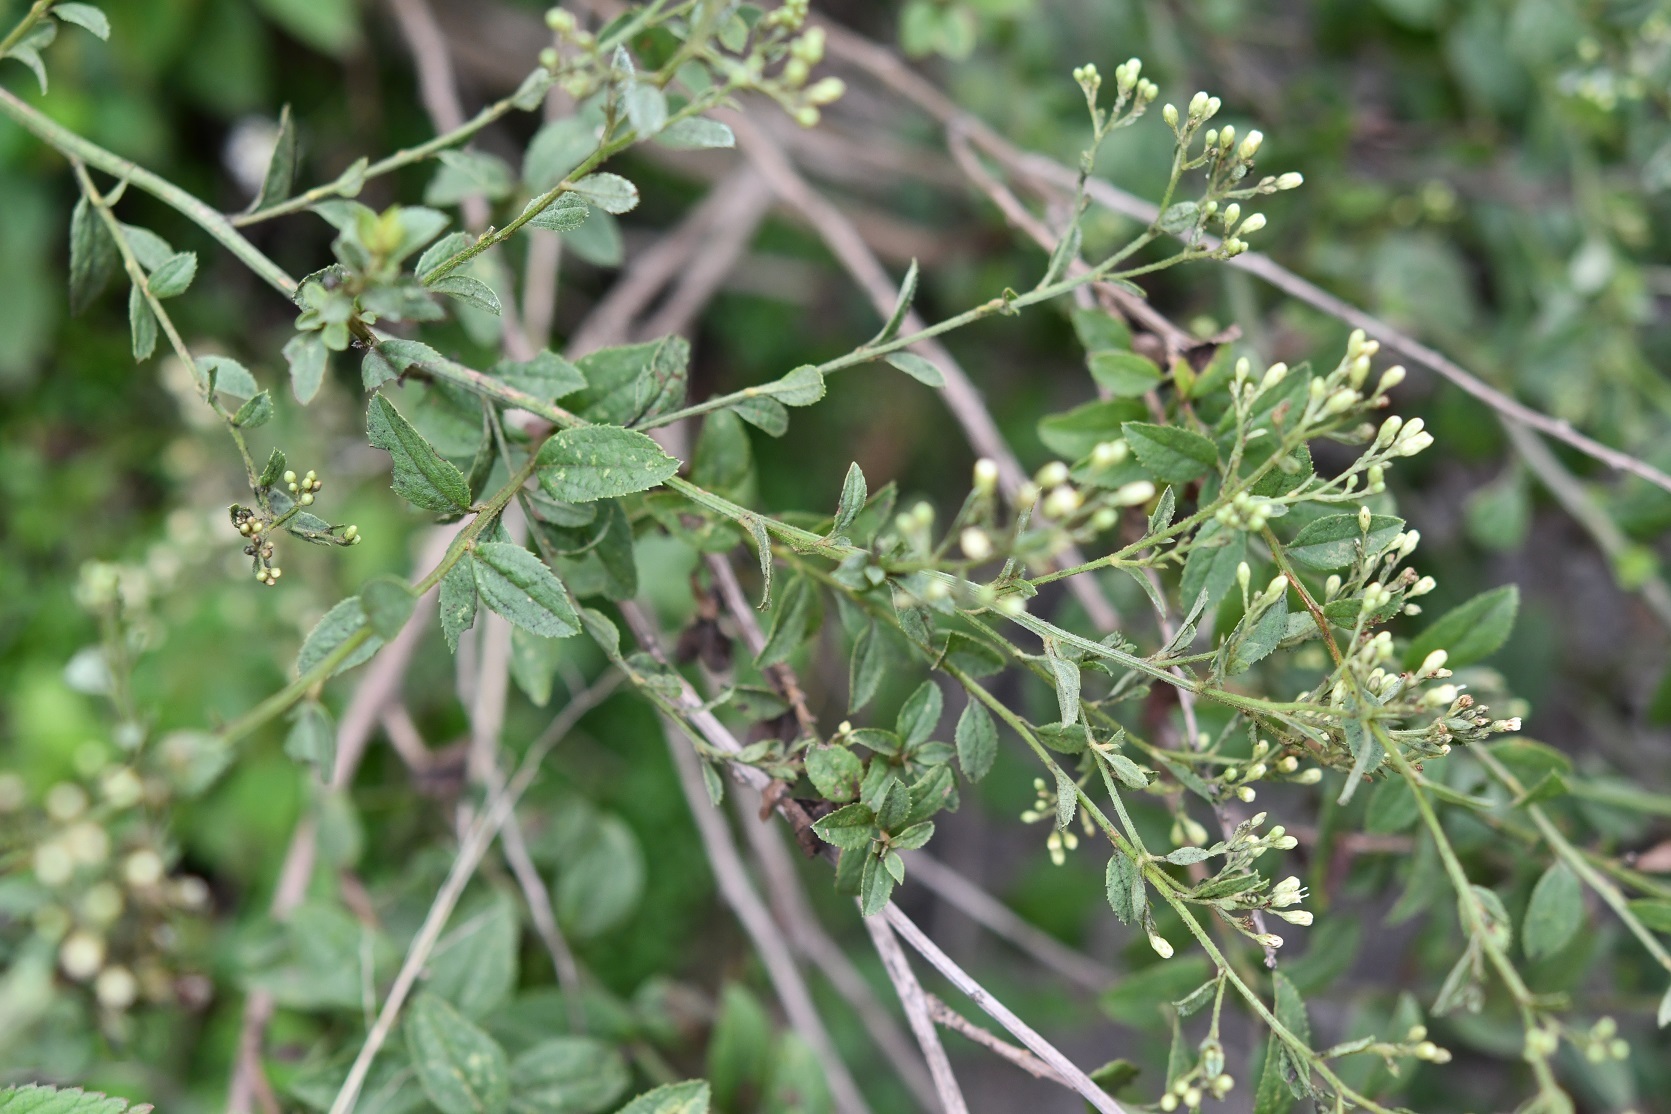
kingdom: Plantae
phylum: Tracheophyta
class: Magnoliopsida
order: Asterales
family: Asteraceae
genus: Archibaccharis
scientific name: Archibaccharis serratifolia
